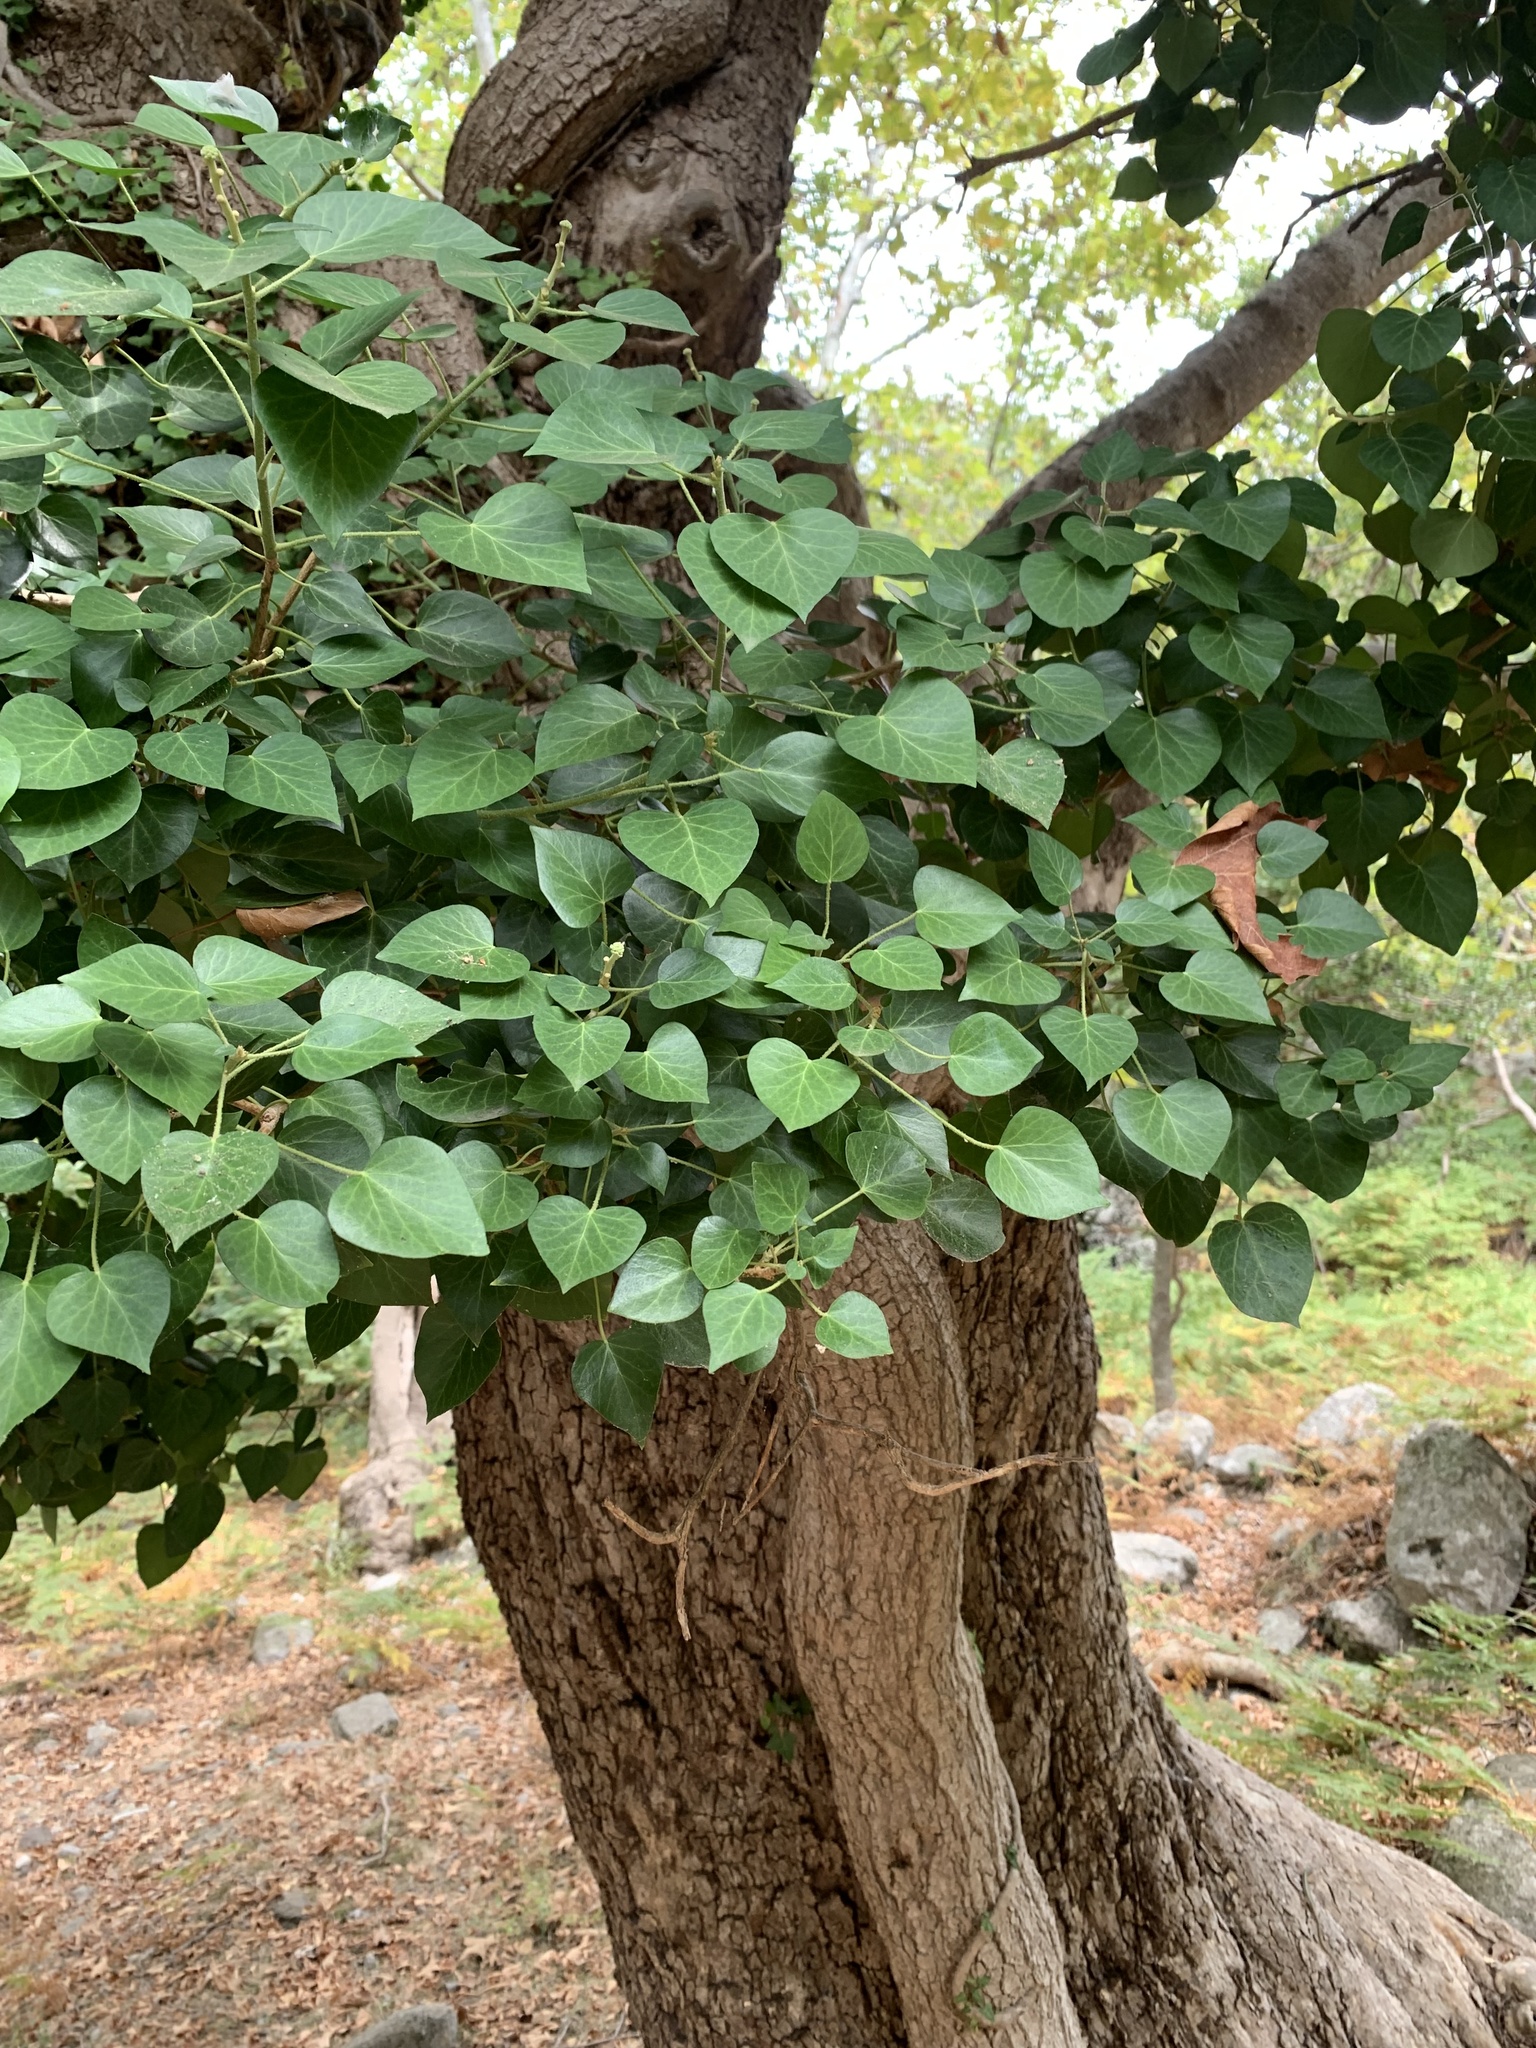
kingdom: Plantae
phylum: Tracheophyta
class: Magnoliopsida
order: Apiales
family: Araliaceae
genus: Hedera
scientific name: Hedera helix
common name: Ivy
